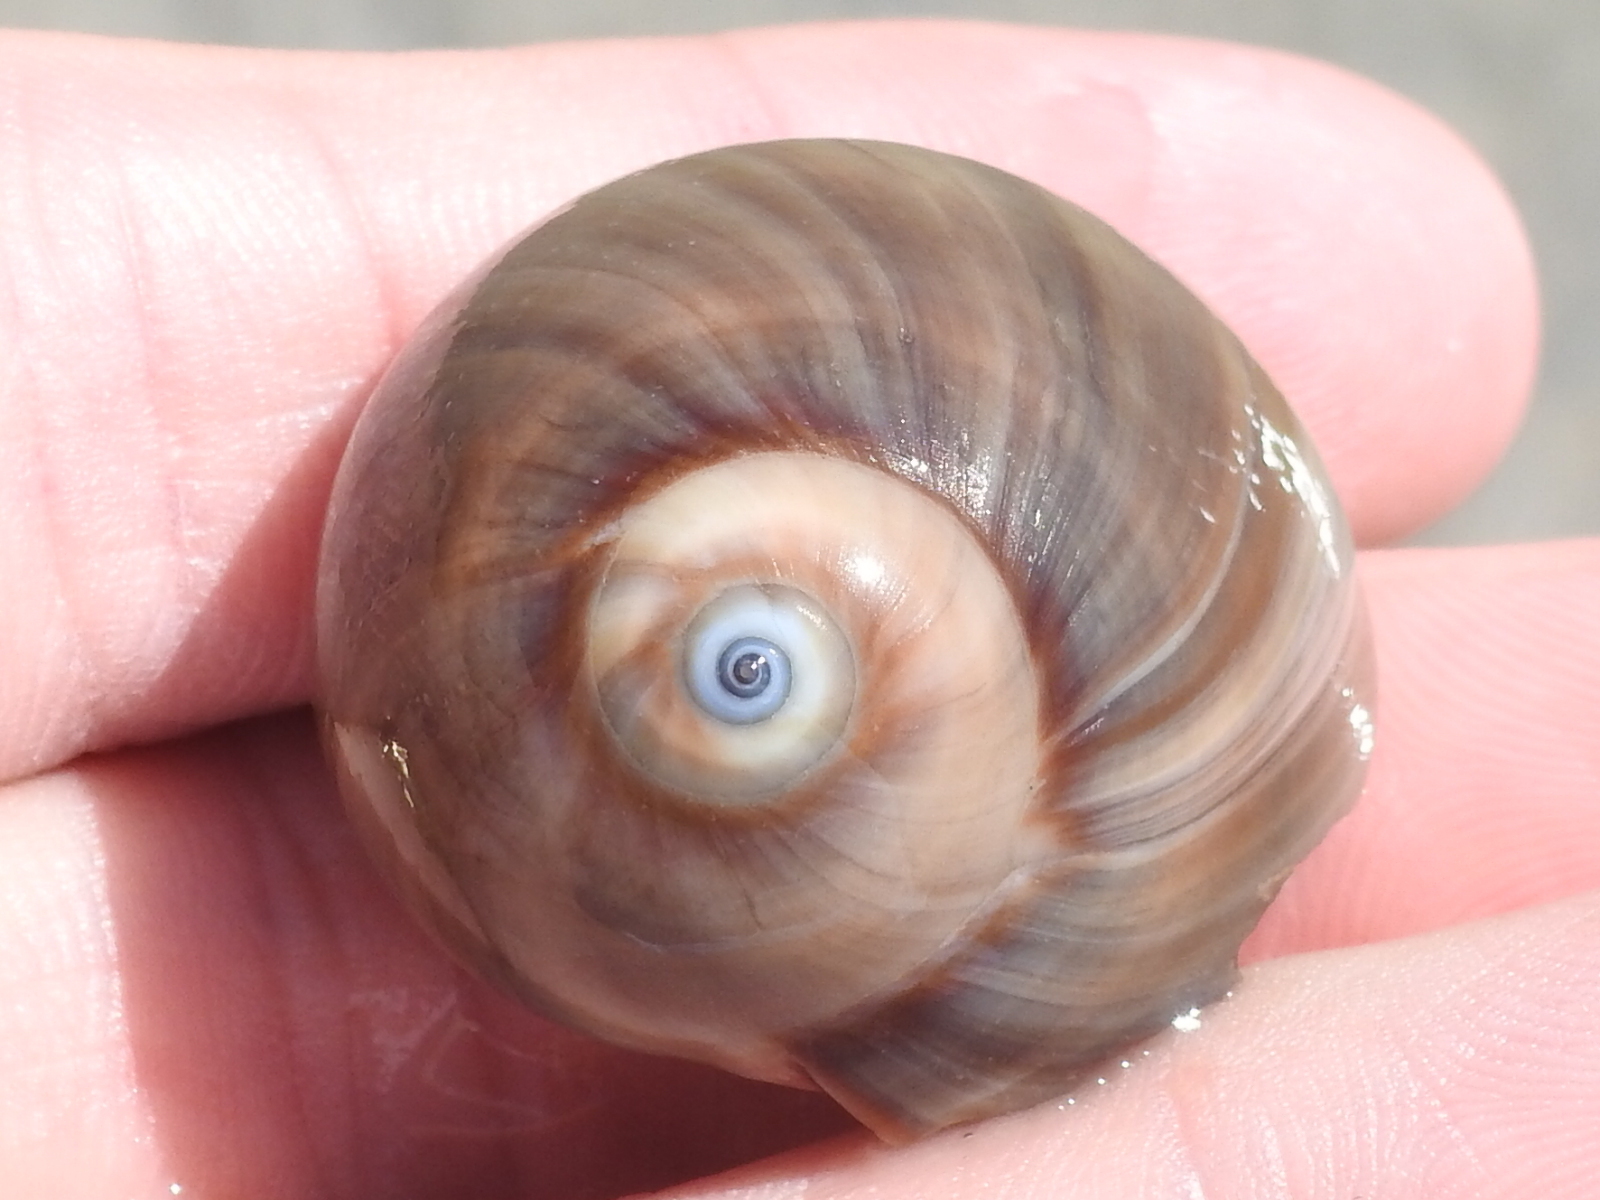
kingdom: Animalia
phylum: Mollusca
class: Gastropoda
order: Littorinimorpha
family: Naticidae
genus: Neverita
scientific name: Neverita delessertiana
